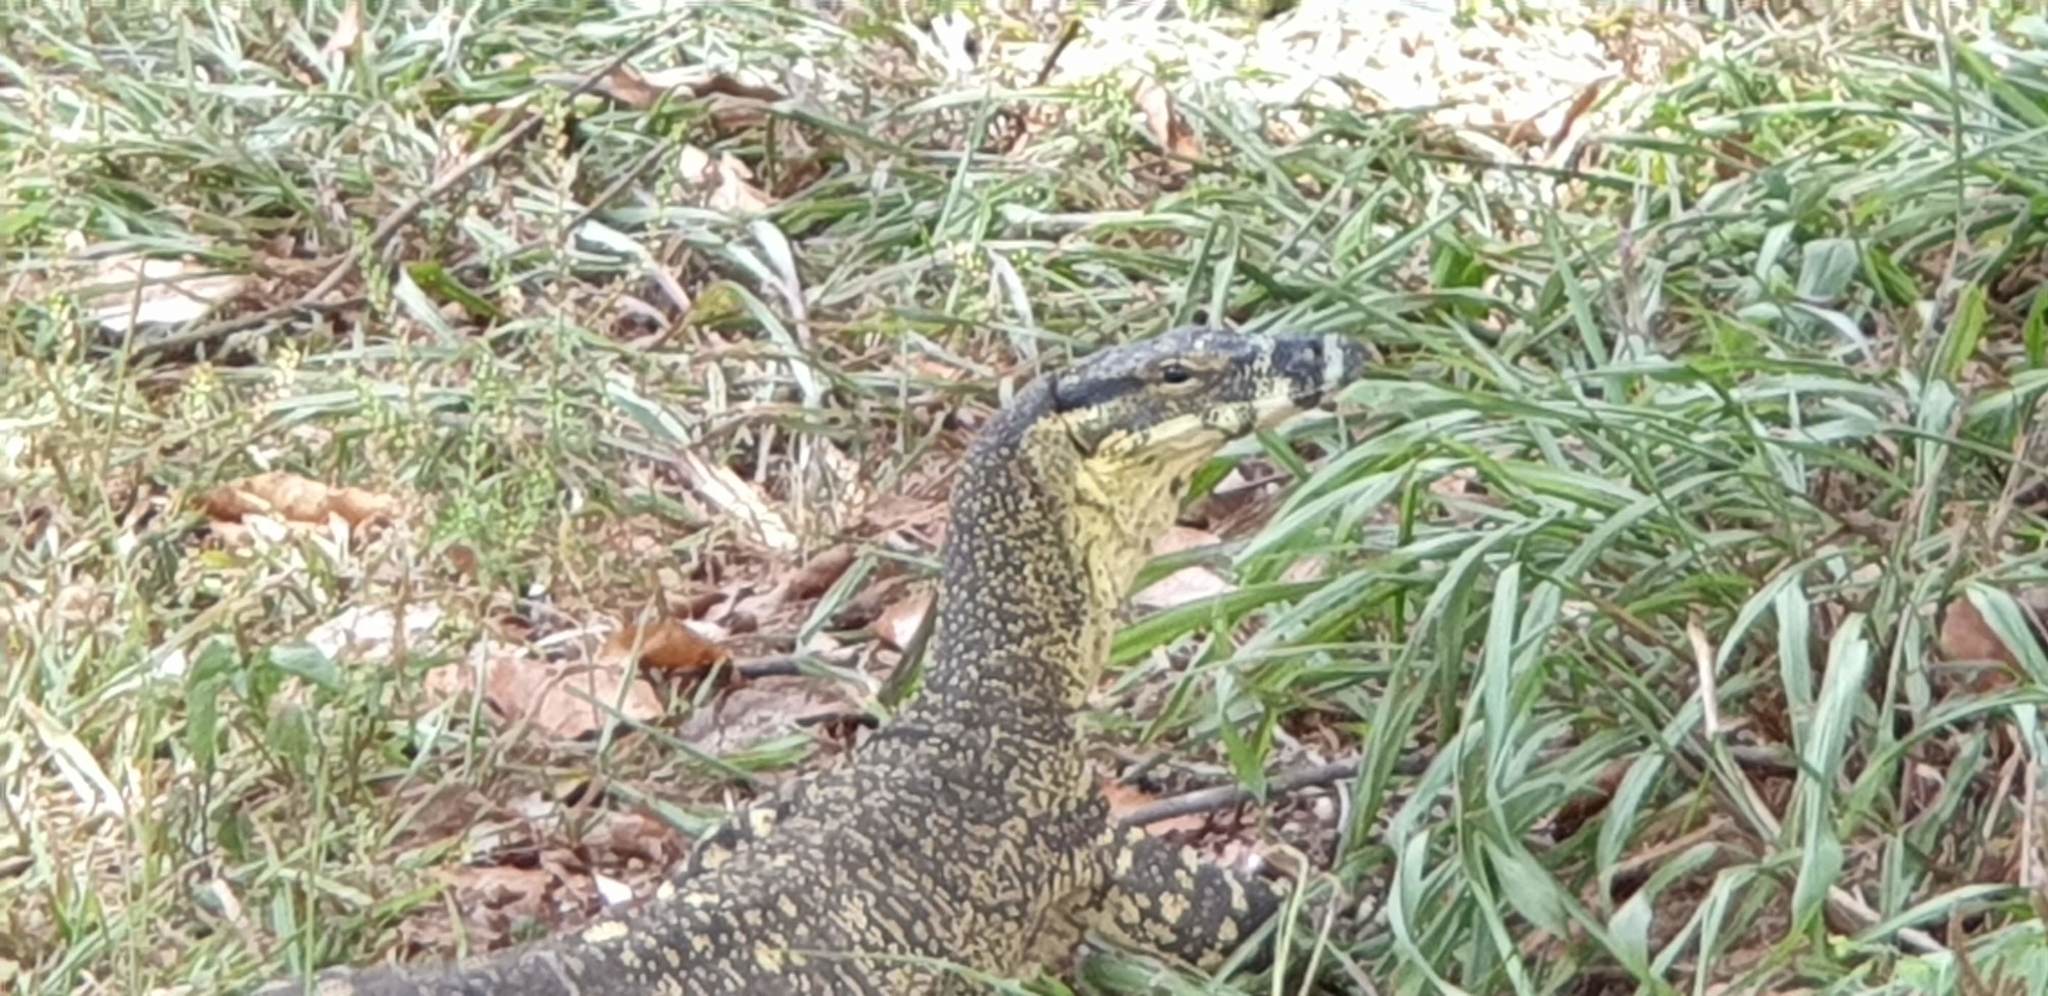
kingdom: Animalia
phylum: Chordata
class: Squamata
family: Varanidae
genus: Varanus
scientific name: Varanus varius
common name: Lace monitor
